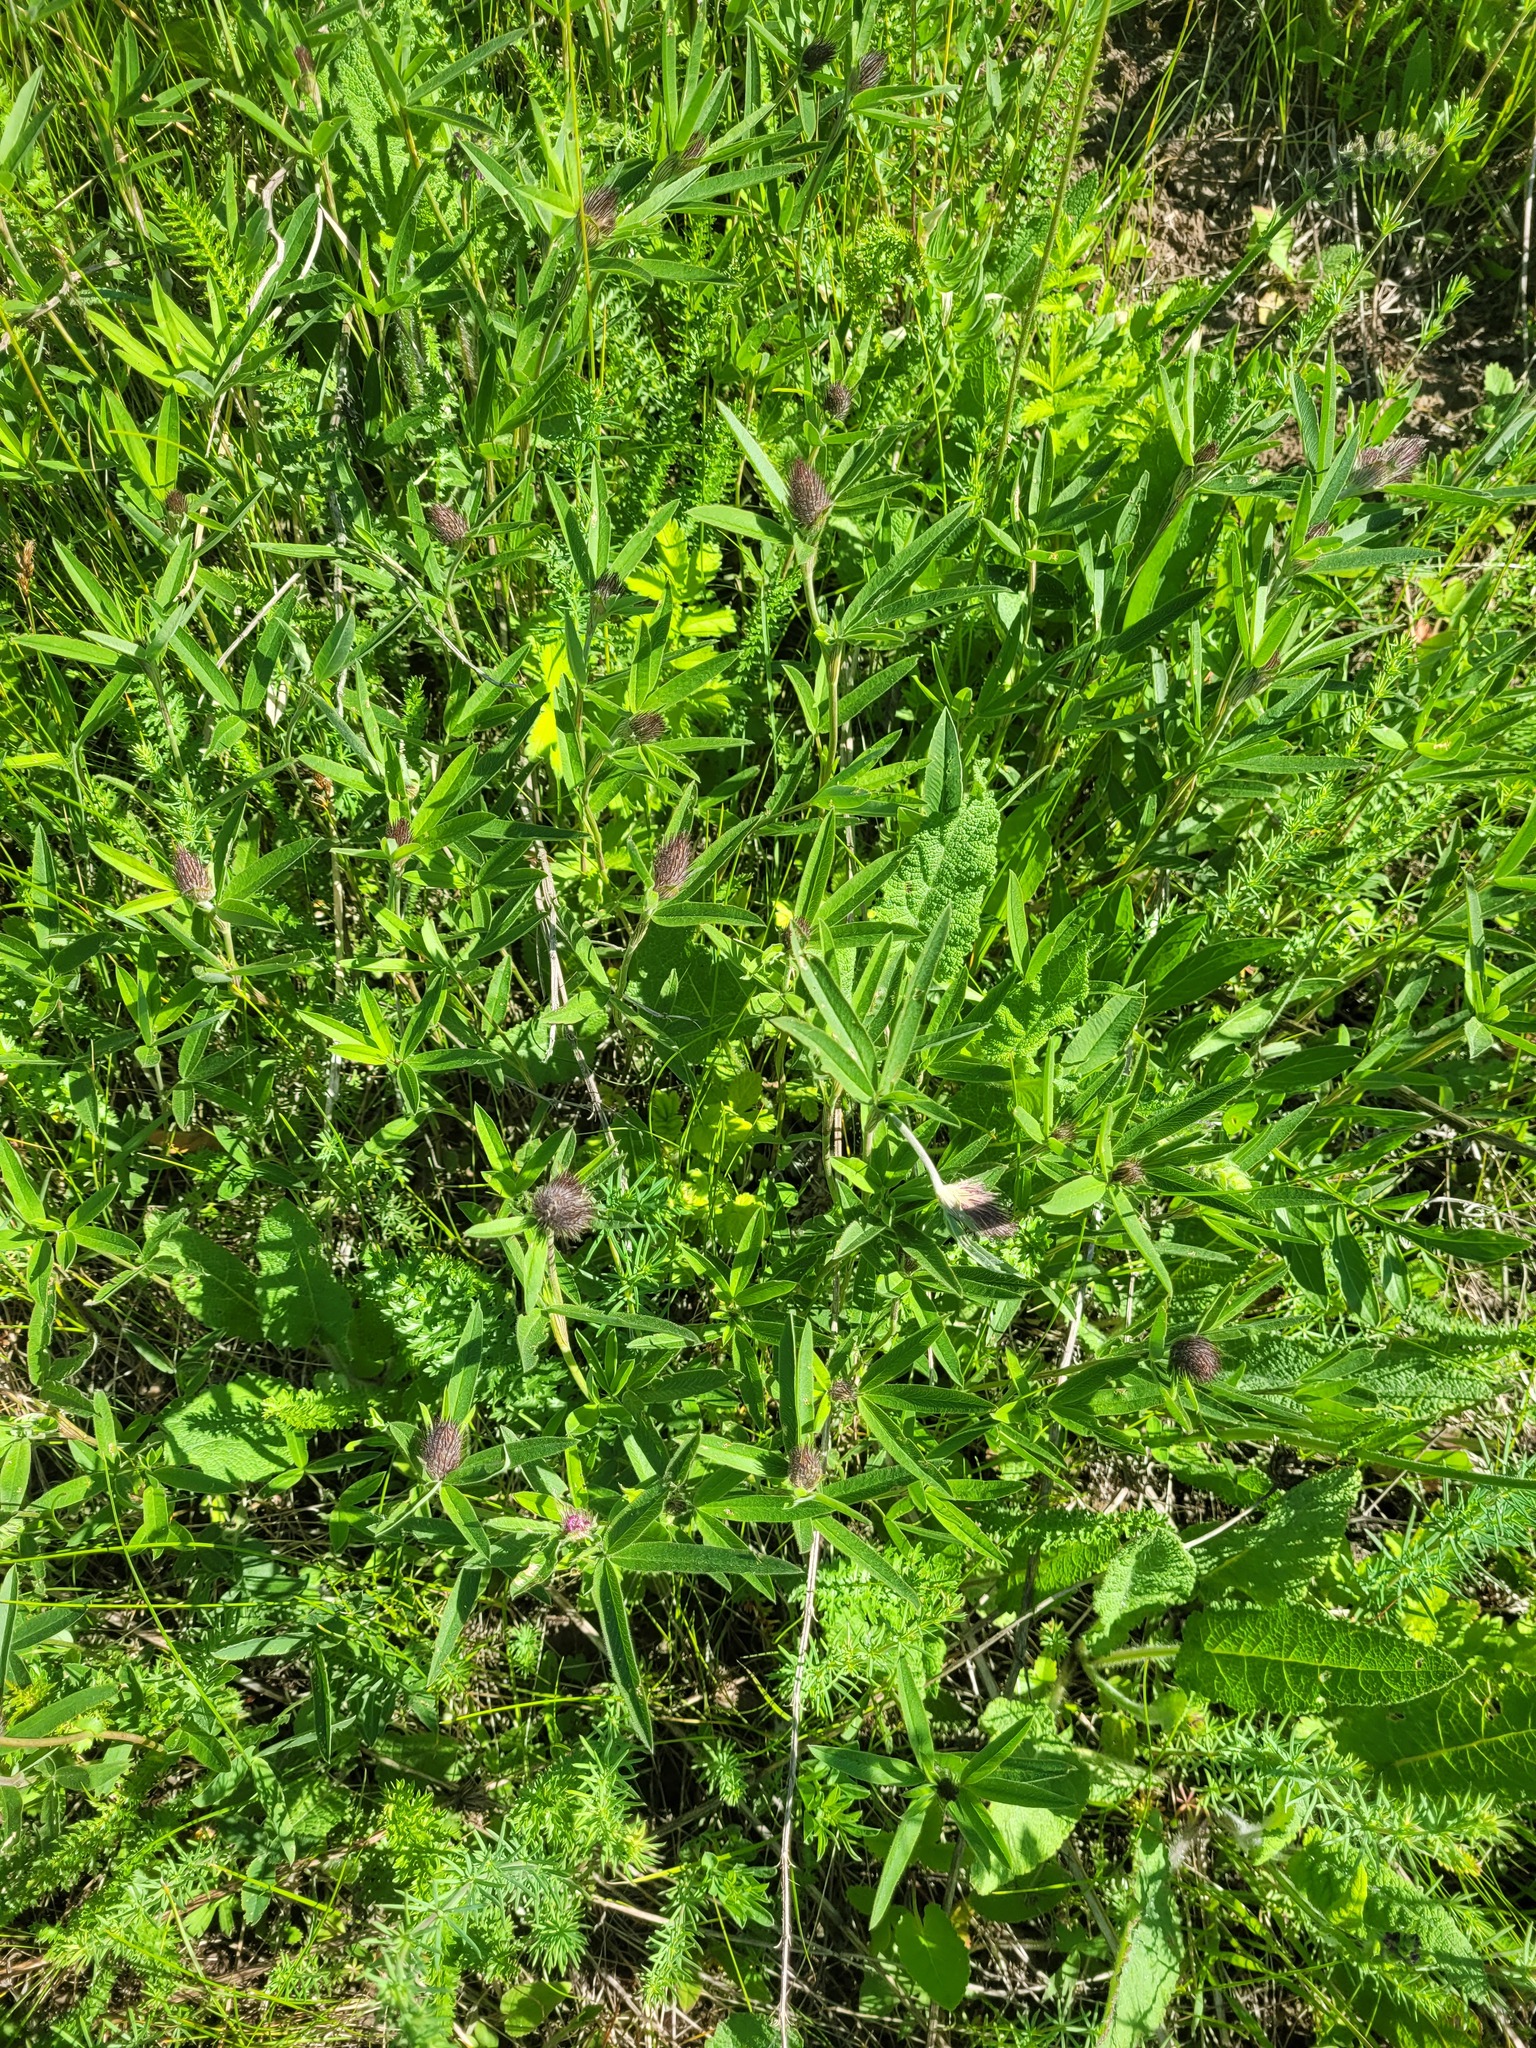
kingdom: Plantae
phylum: Tracheophyta
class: Magnoliopsida
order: Fabales
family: Fabaceae
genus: Trifolium
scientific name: Trifolium alpestre
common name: Owl-head clover
